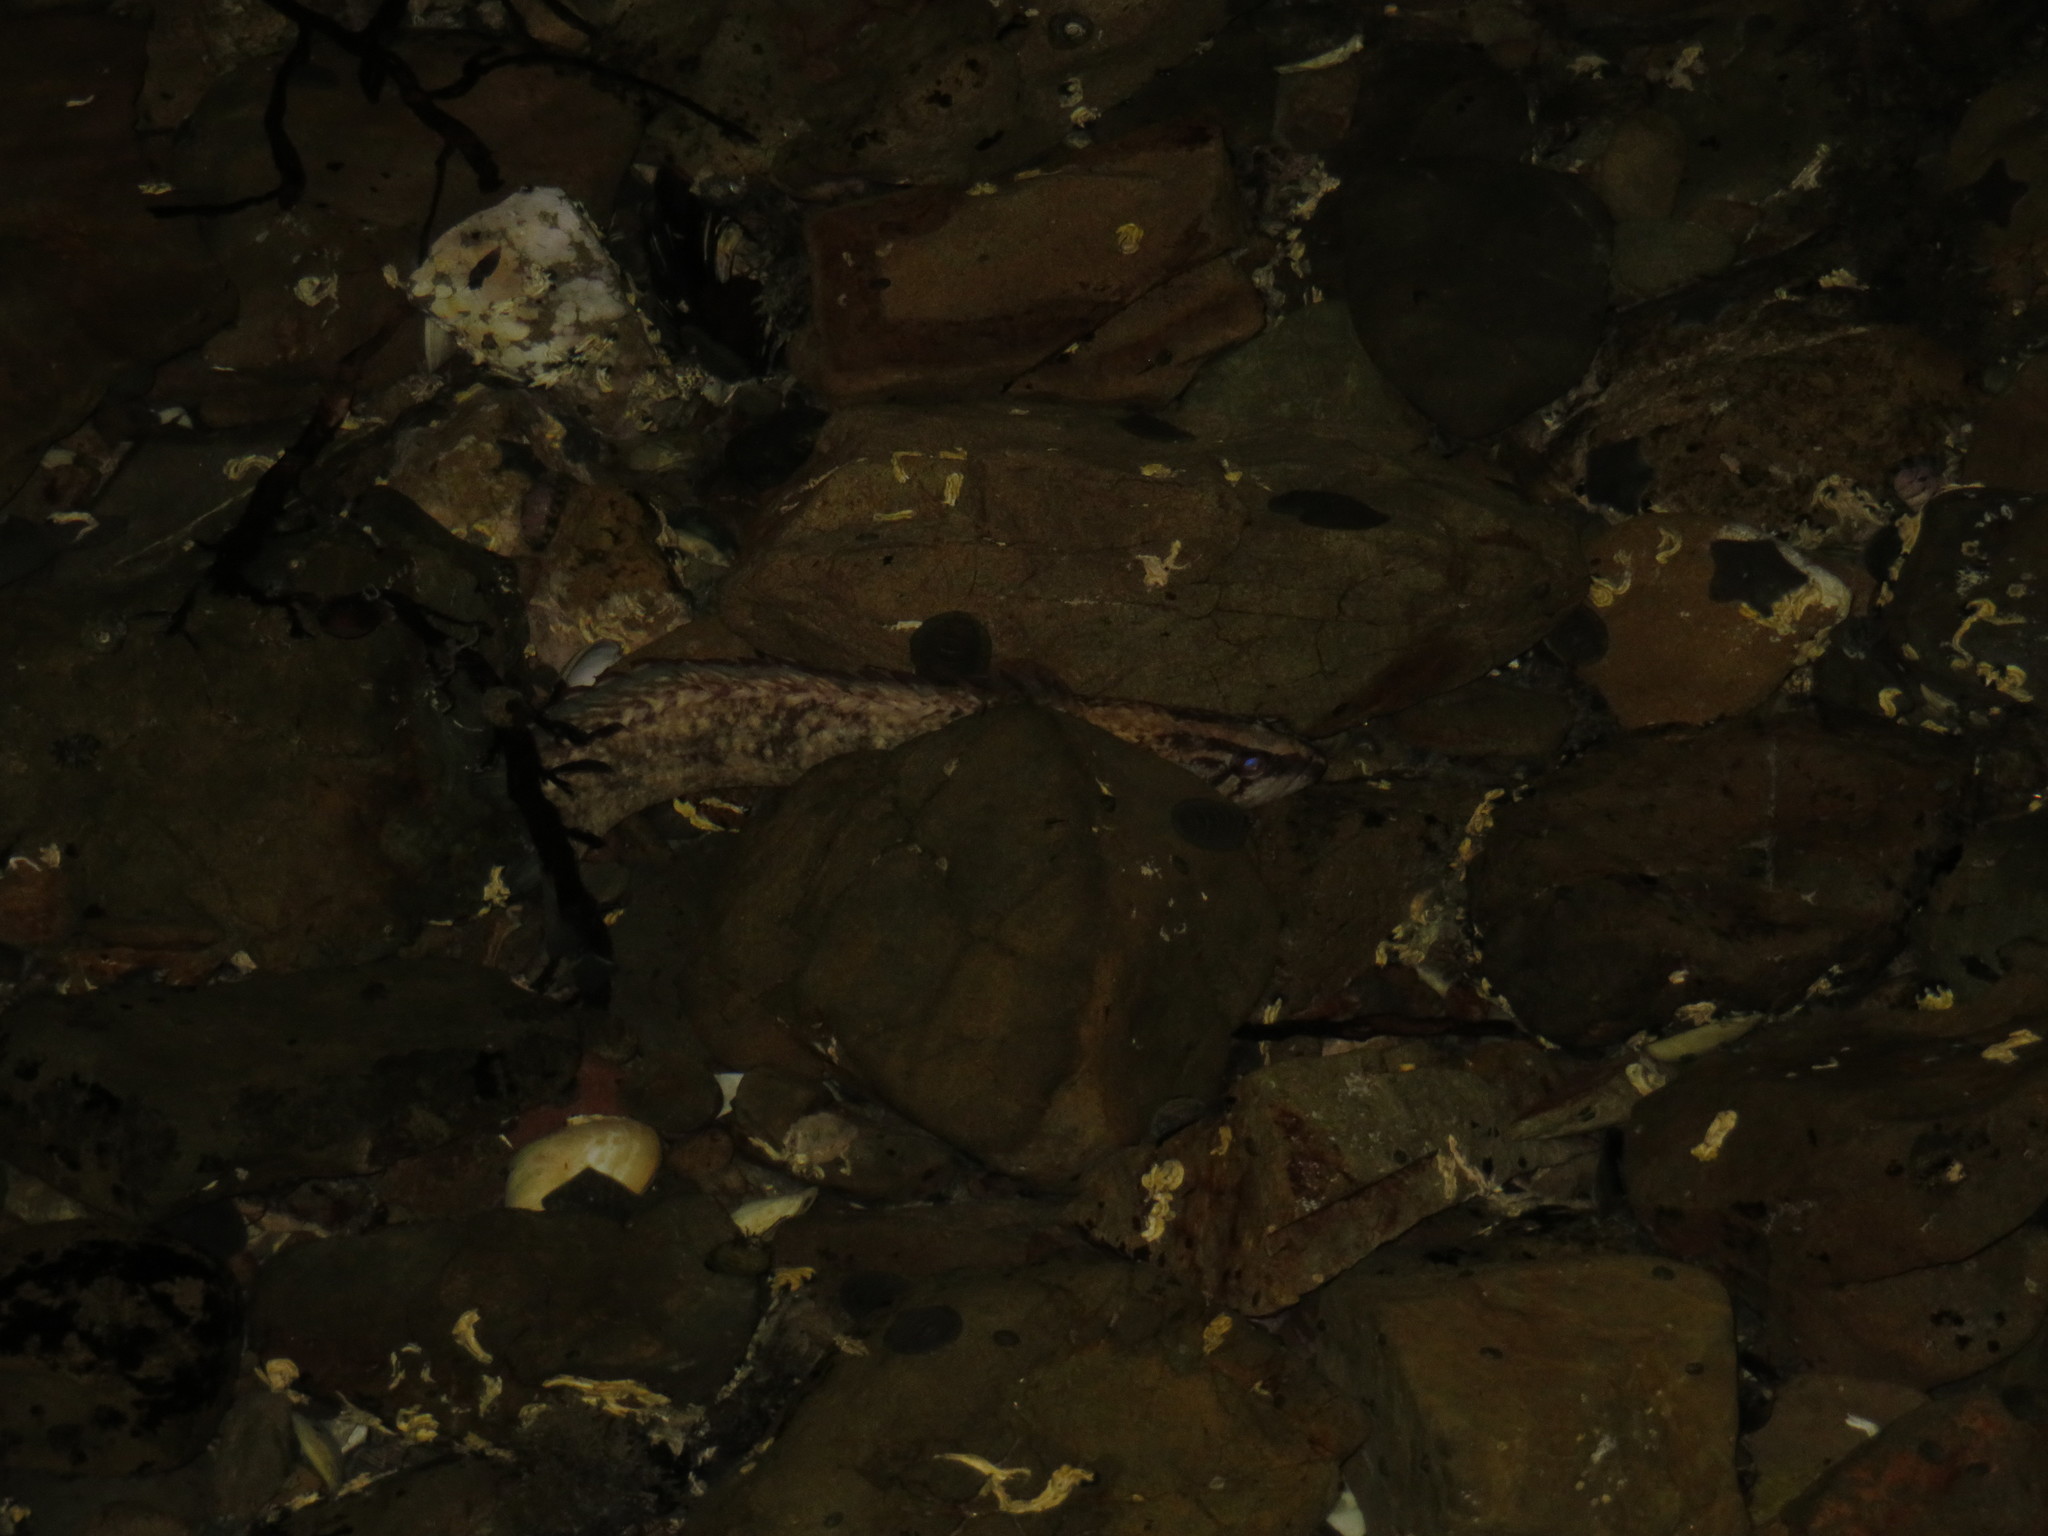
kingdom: Animalia
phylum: Chordata
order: Perciformes
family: Plesiopidae
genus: Acanthoclinus
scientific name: Acanthoclinus fuscus
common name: Olive rockfish
